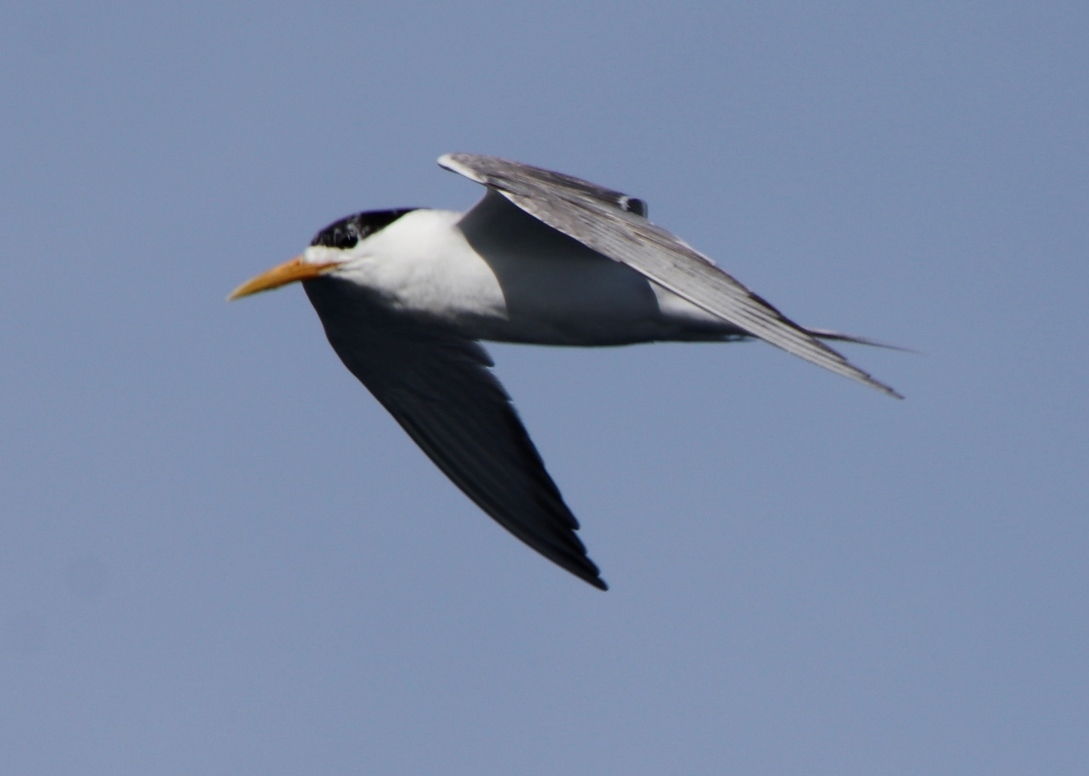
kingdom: Animalia
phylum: Chordata
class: Aves
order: Charadriiformes
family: Laridae
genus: Thalasseus
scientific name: Thalasseus bergii
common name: Greater crested tern
